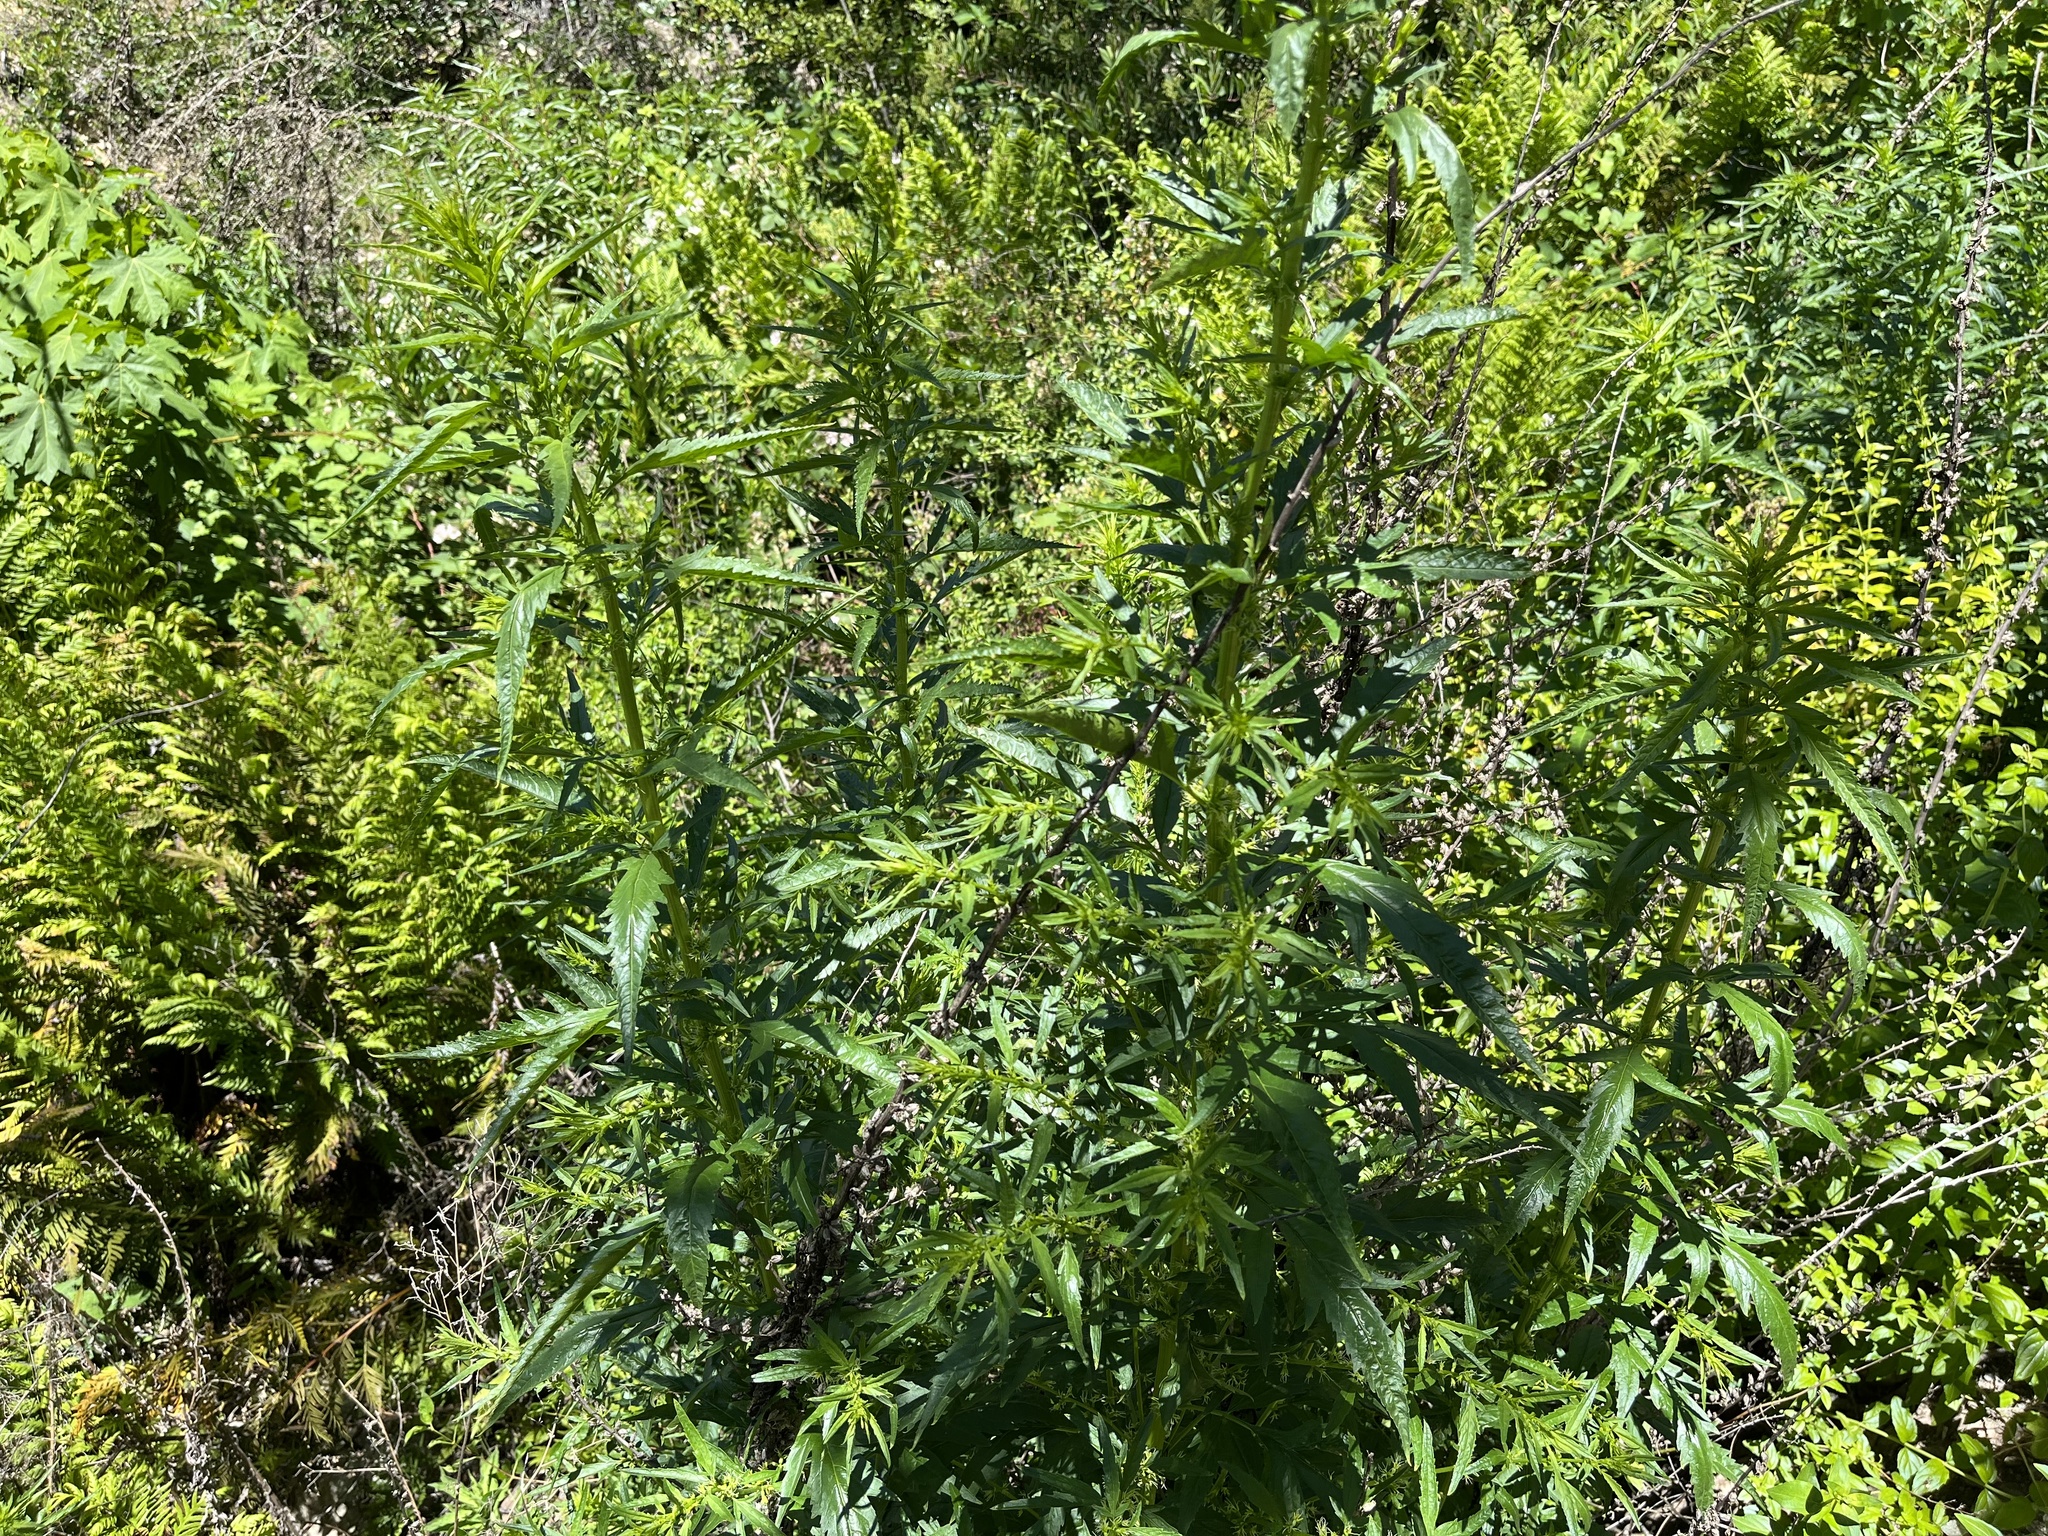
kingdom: Plantae
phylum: Tracheophyta
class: Magnoliopsida
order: Cucurbitales
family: Datiscaceae
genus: Datisca
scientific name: Datisca glomerata
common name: Durango-root
